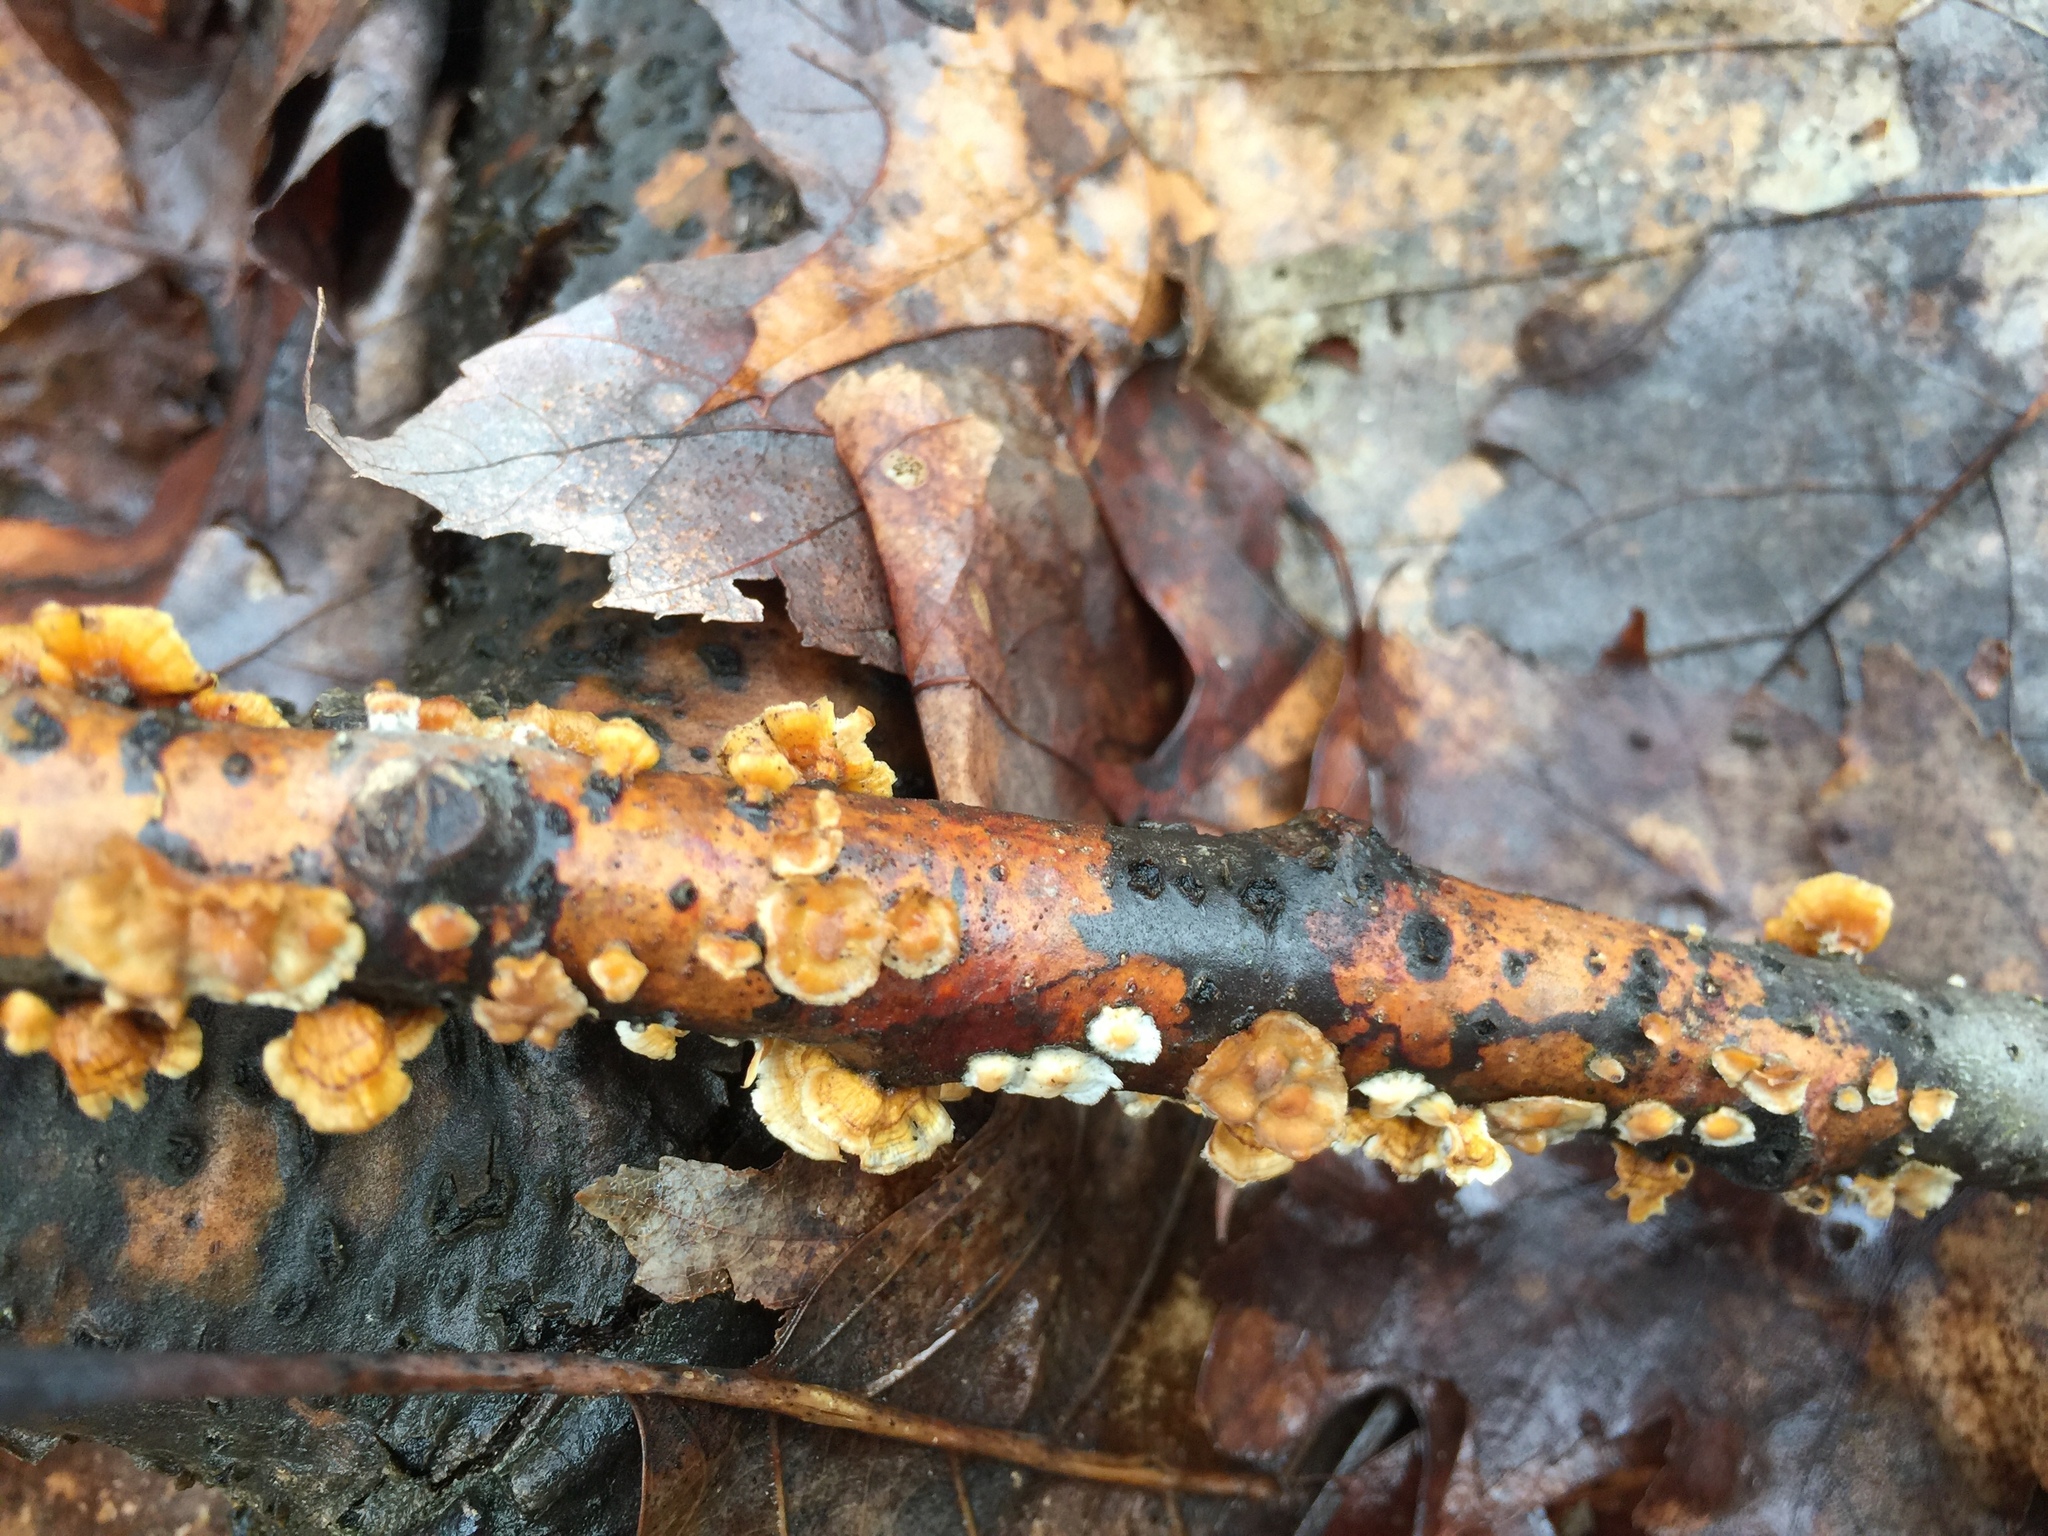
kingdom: Fungi
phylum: Basidiomycota
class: Agaricomycetes
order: Russulales
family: Stereaceae
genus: Stereum
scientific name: Stereum complicatum
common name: Crowded parchment
